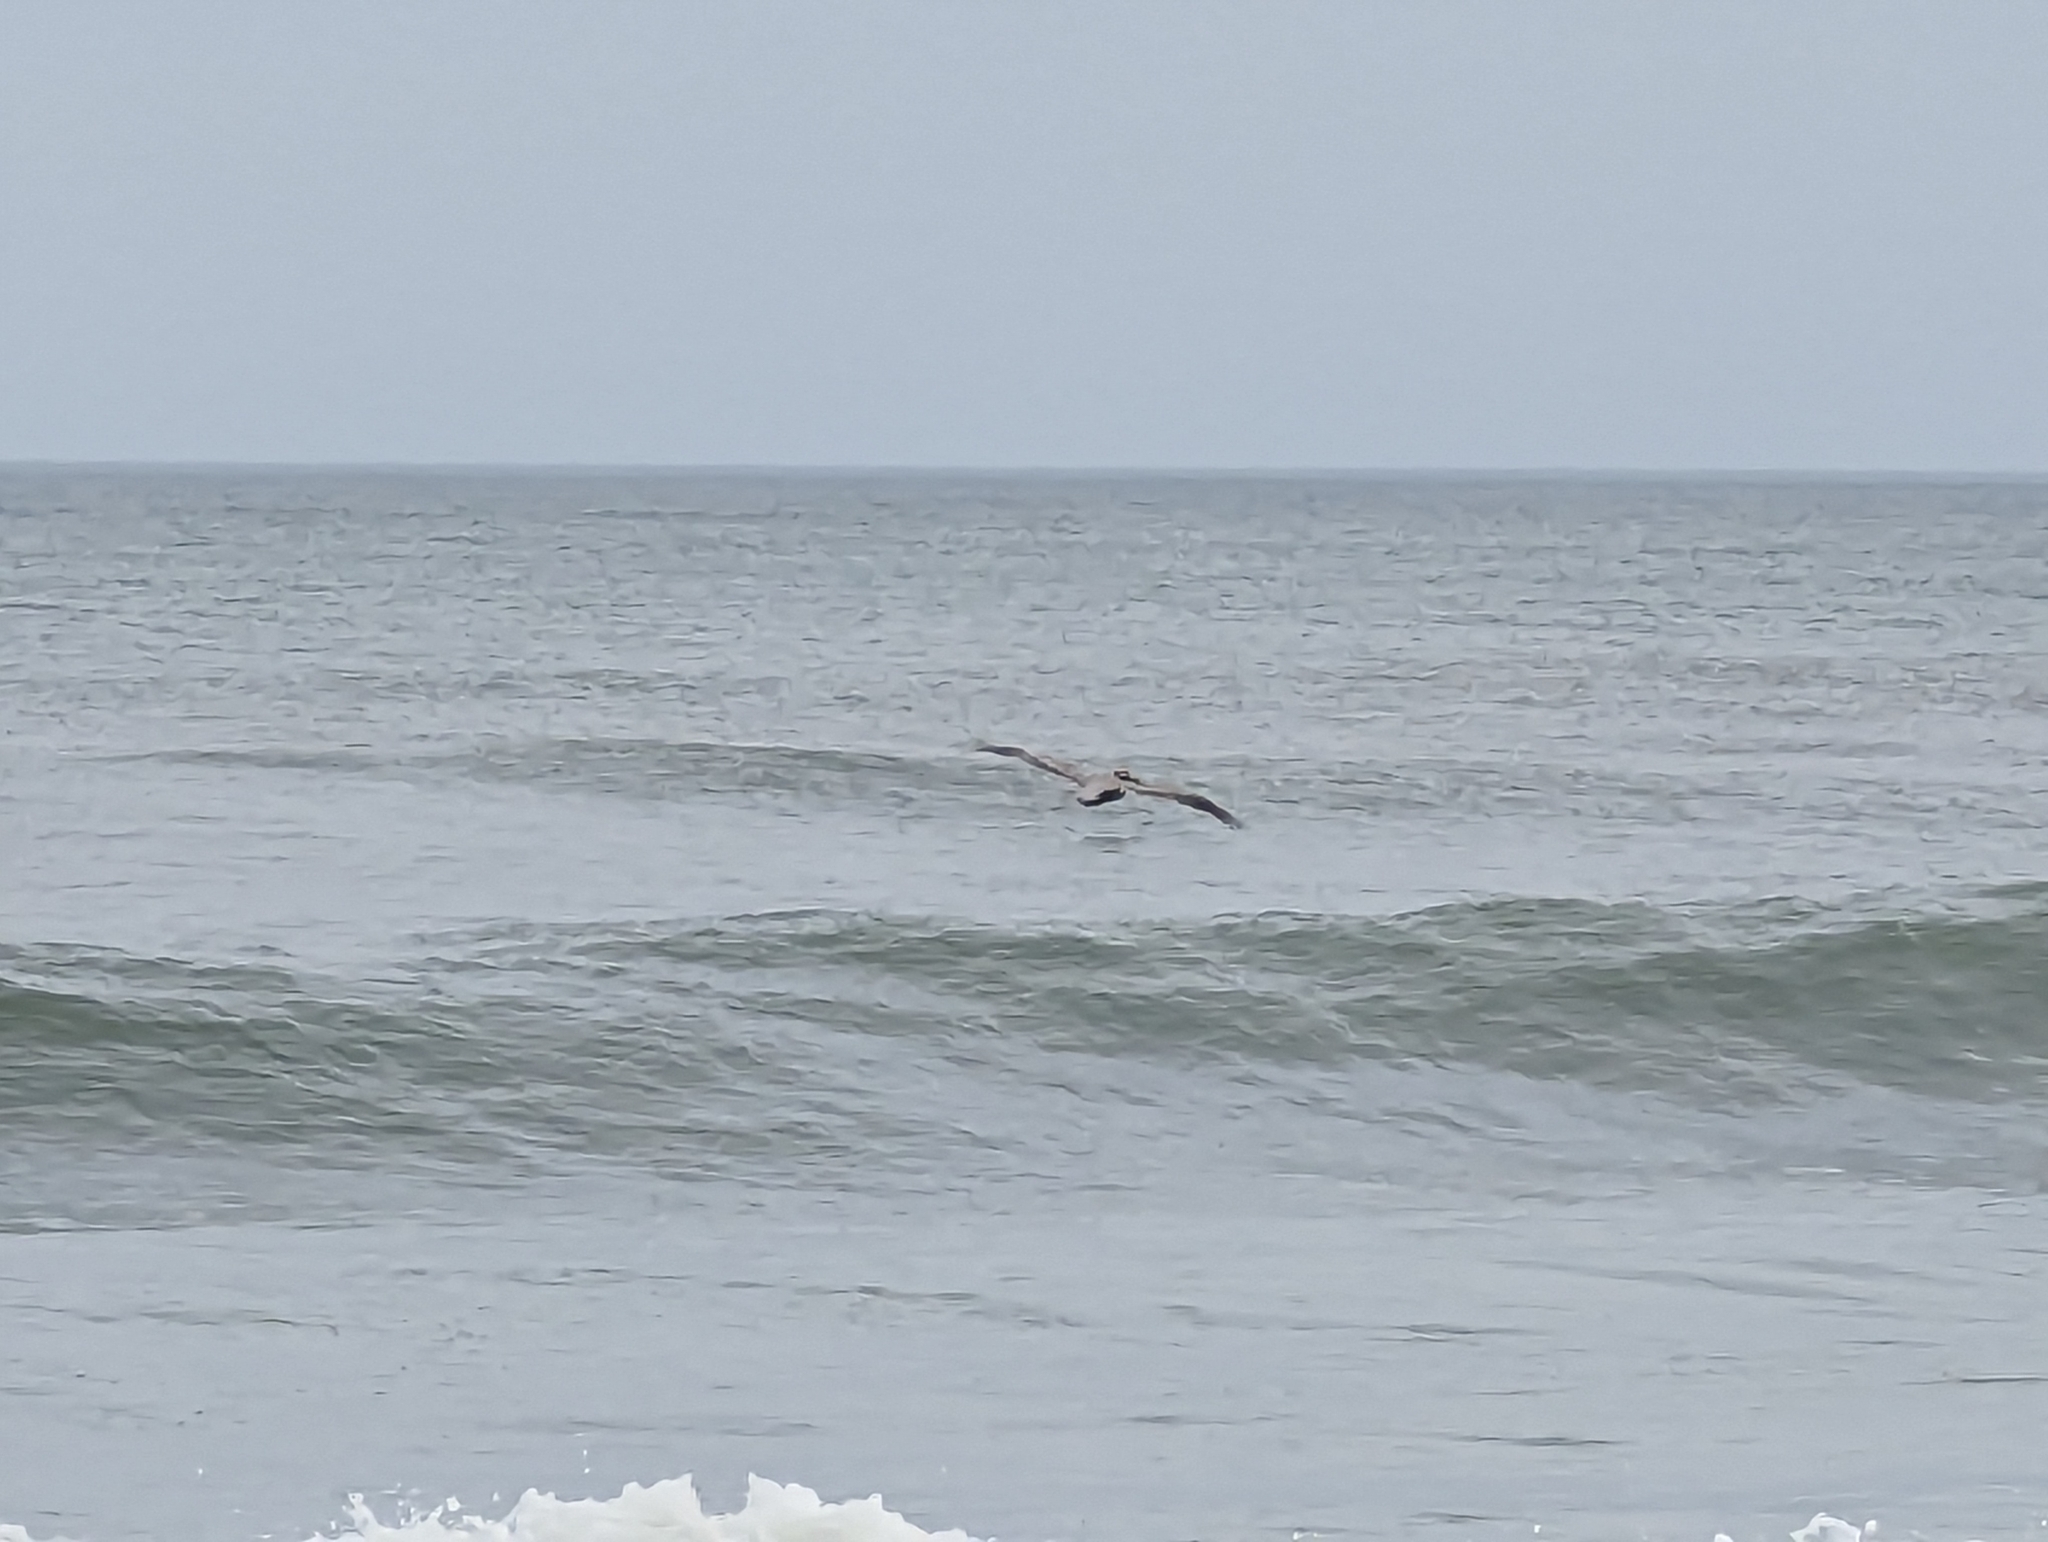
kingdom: Animalia
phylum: Chordata
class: Aves
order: Pelecaniformes
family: Pelecanidae
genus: Pelecanus
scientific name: Pelecanus occidentalis
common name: Brown pelican
